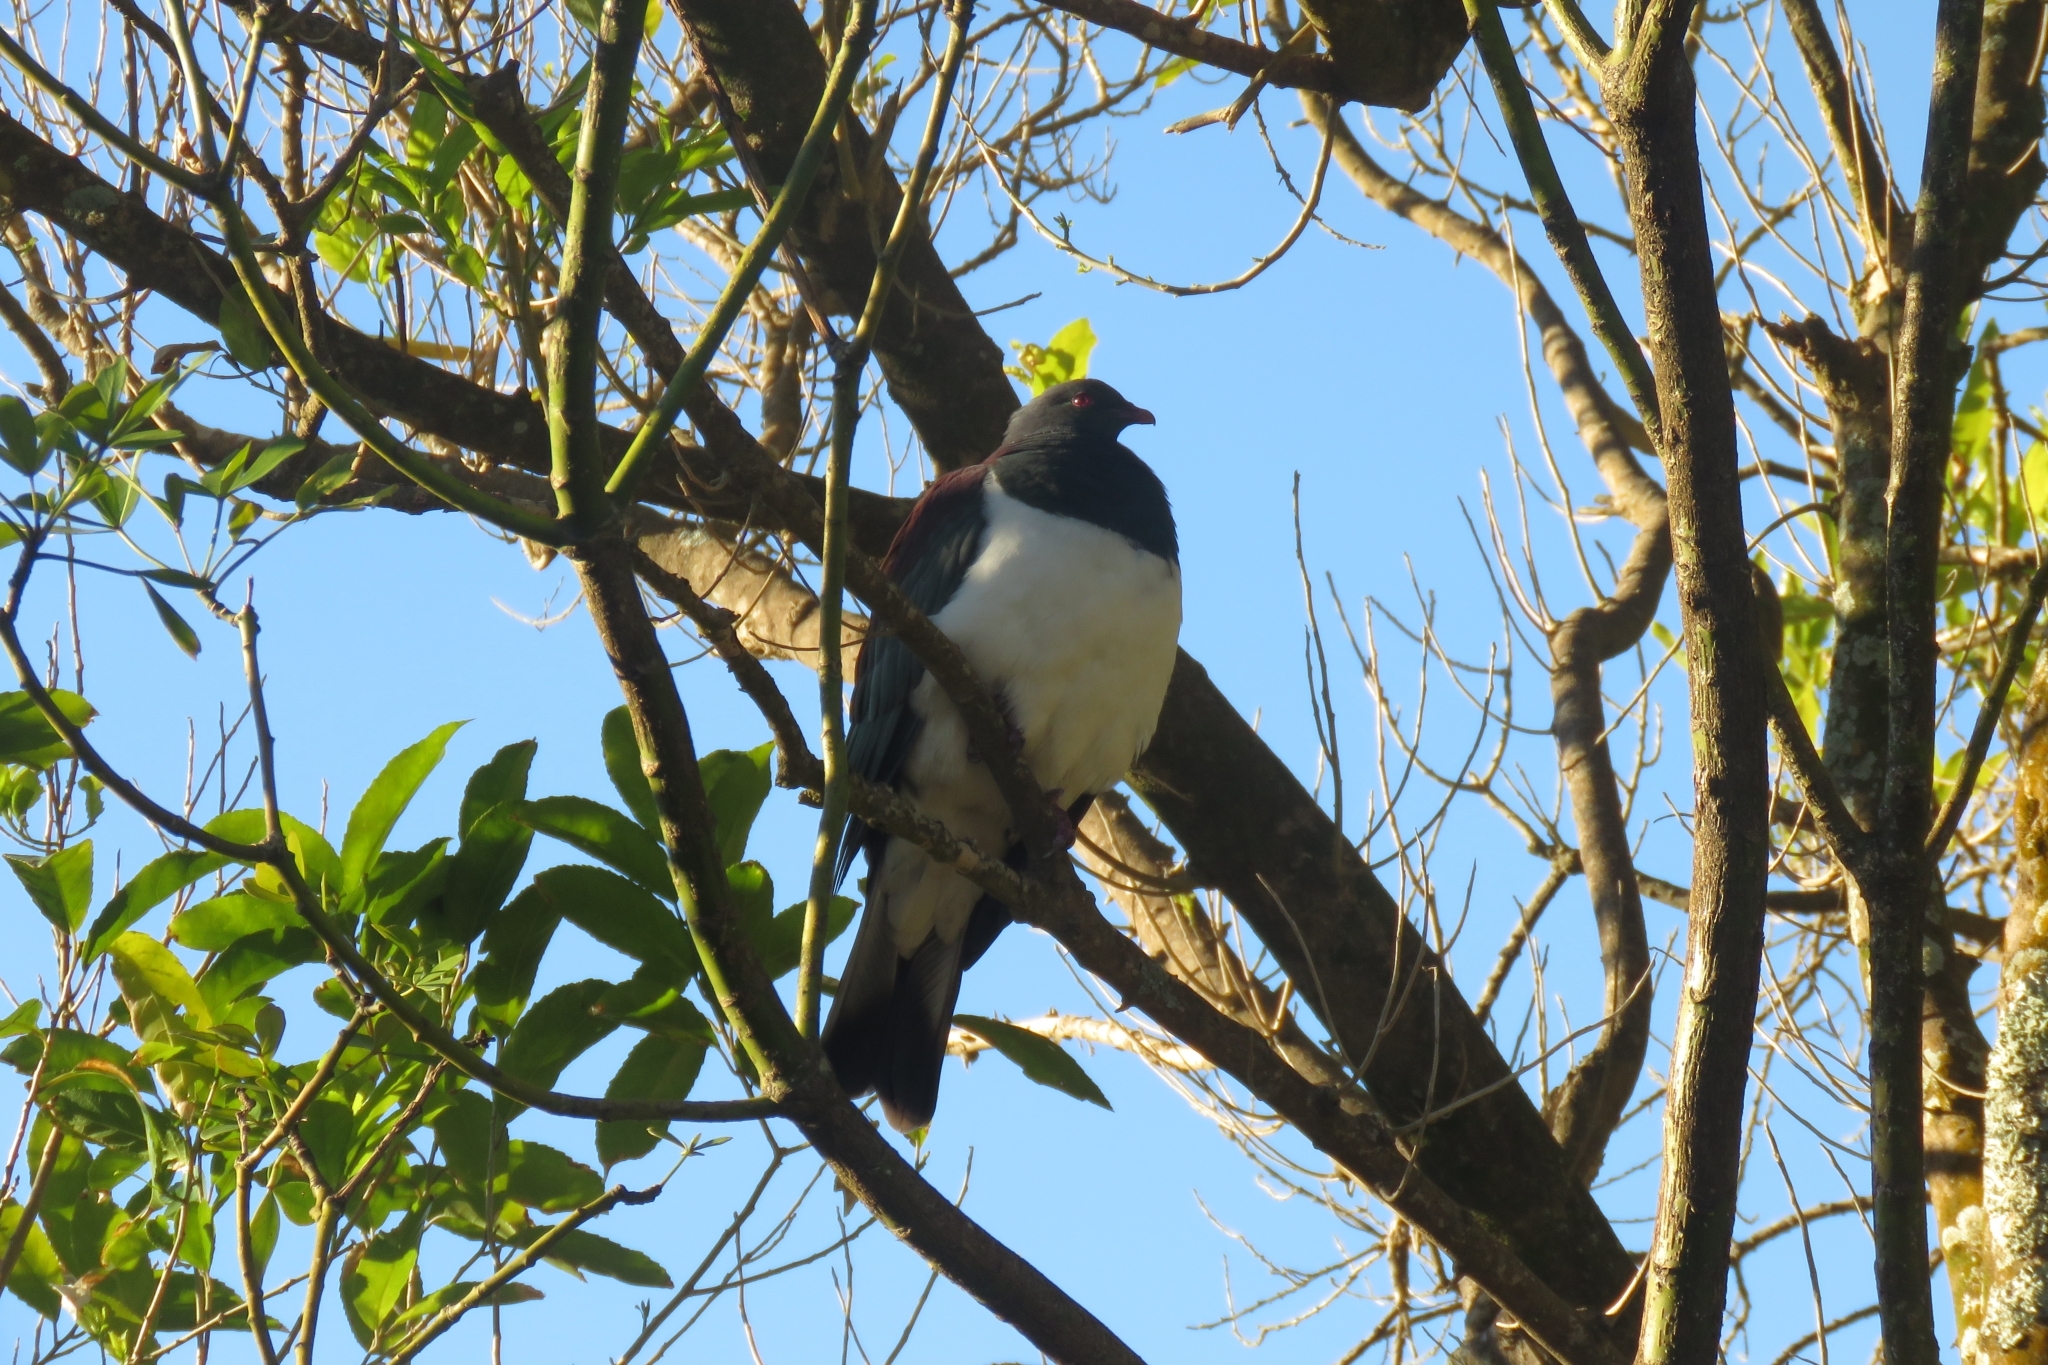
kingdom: Animalia
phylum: Chordata
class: Aves
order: Columbiformes
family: Columbidae
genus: Hemiphaga
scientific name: Hemiphaga novaeseelandiae
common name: New zealand pigeon
